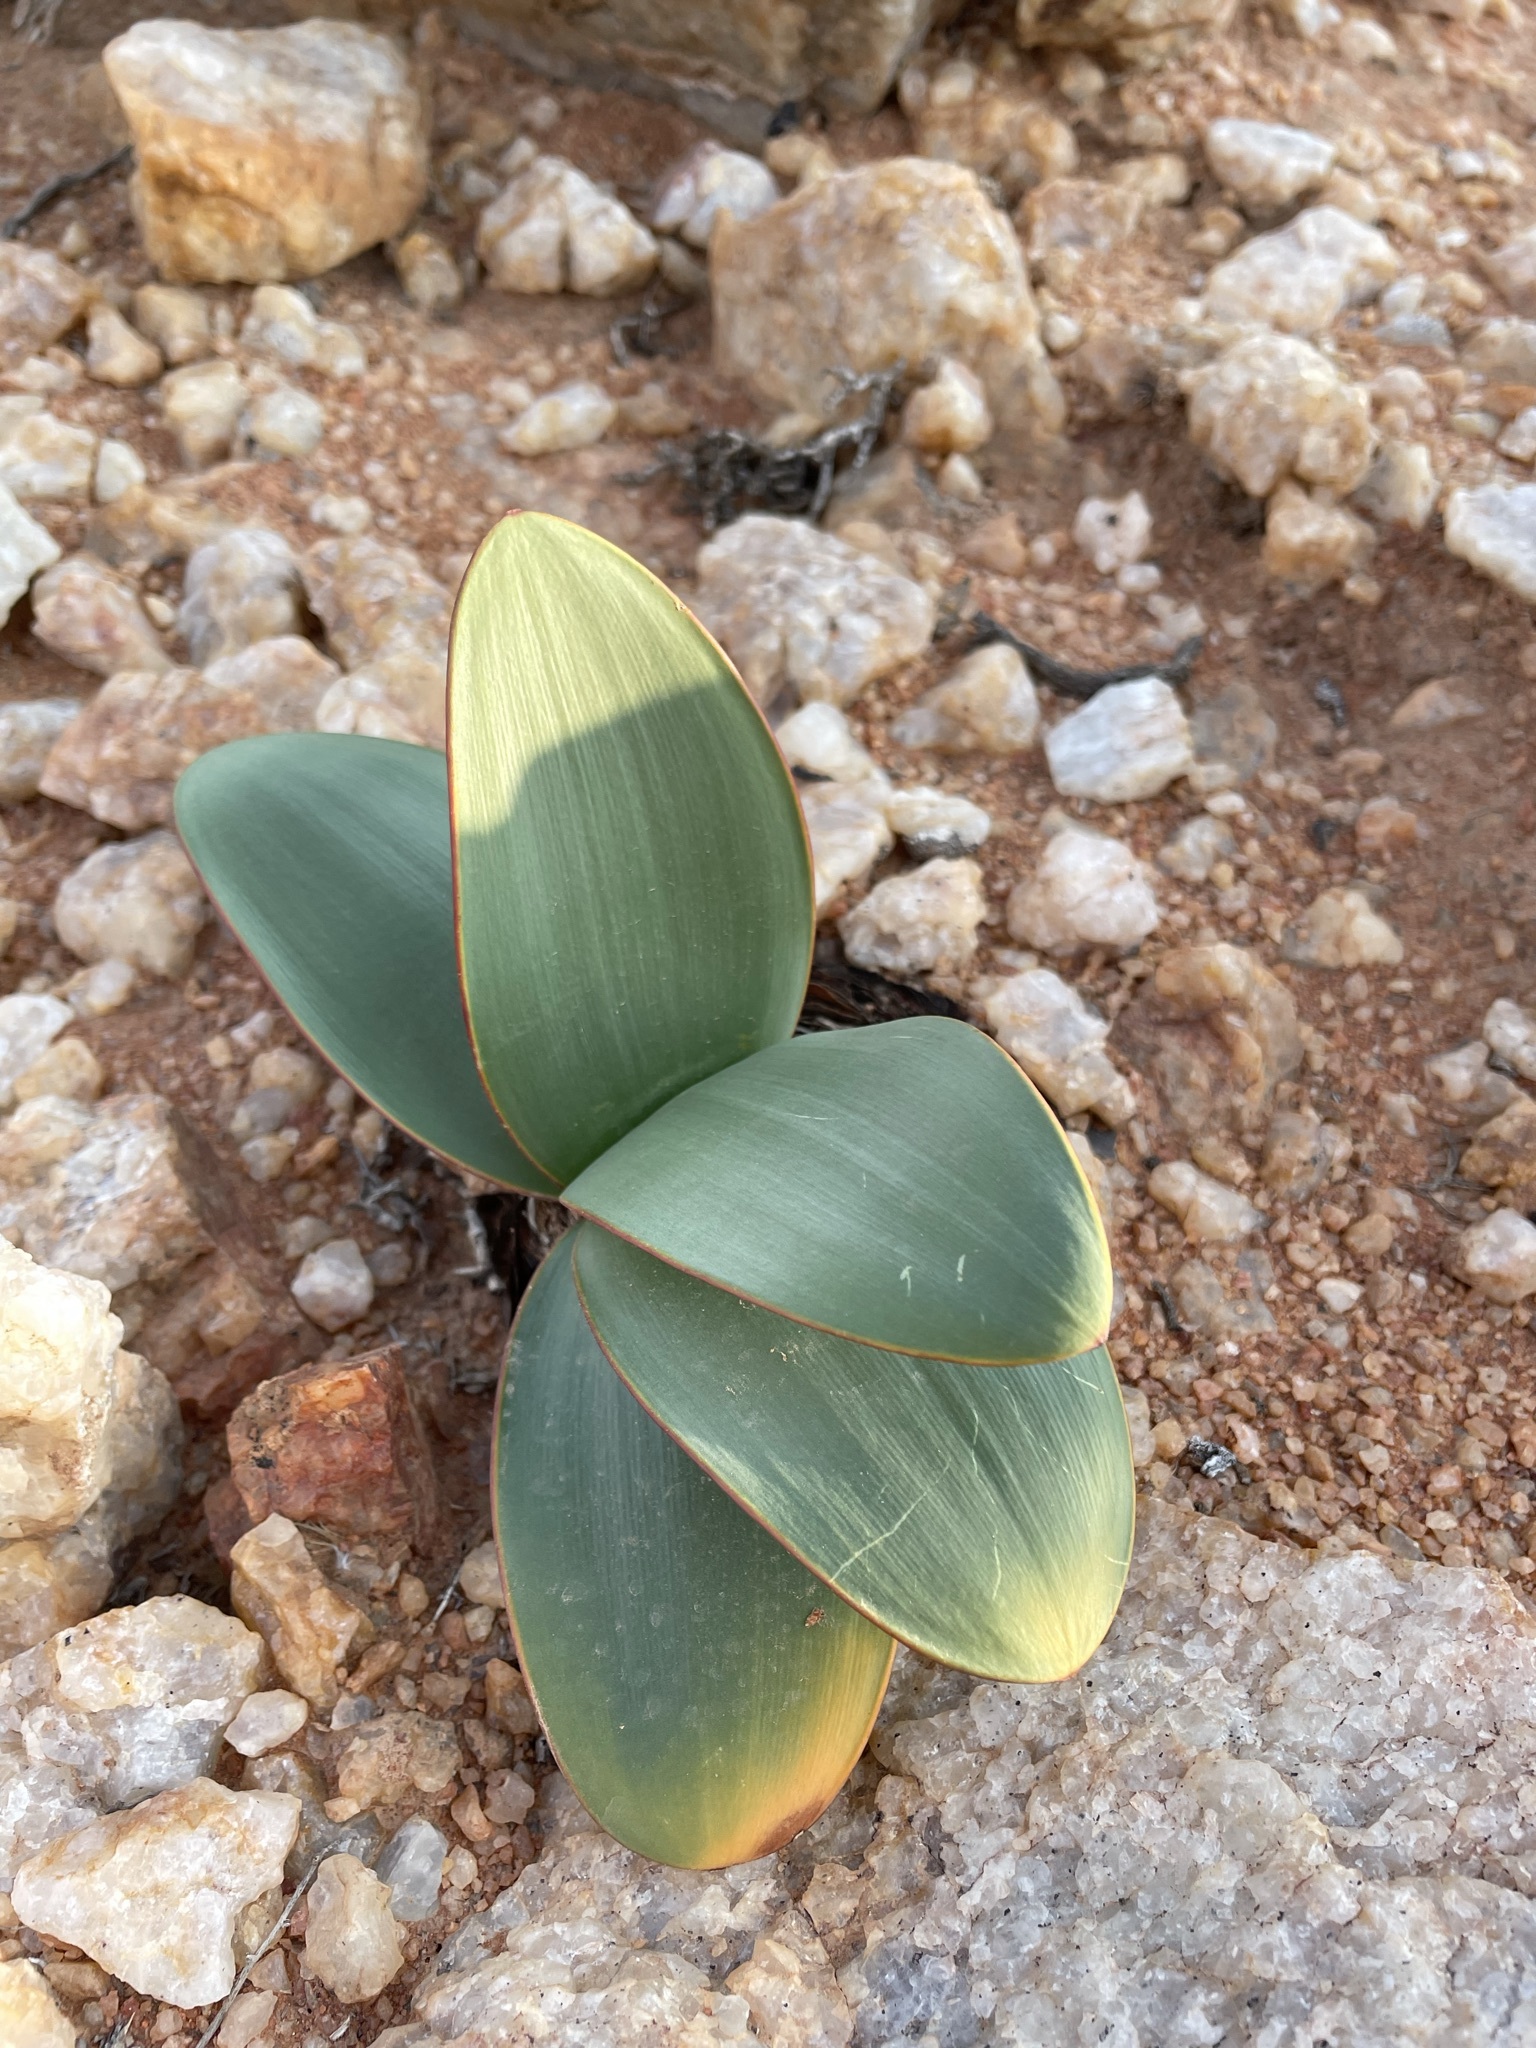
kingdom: Plantae
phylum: Tracheophyta
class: Liliopsida
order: Asparagales
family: Amaryllidaceae
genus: Brunsvigia
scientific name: Brunsvigia herrei
